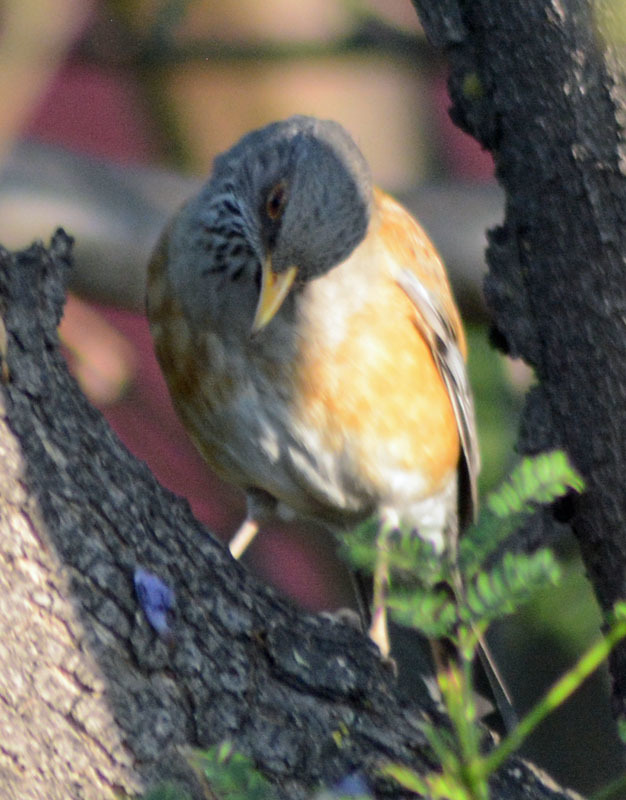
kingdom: Animalia
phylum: Chordata
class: Aves
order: Passeriformes
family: Turdidae
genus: Turdus
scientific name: Turdus rufopalliatus
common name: Rufous-backed robin
